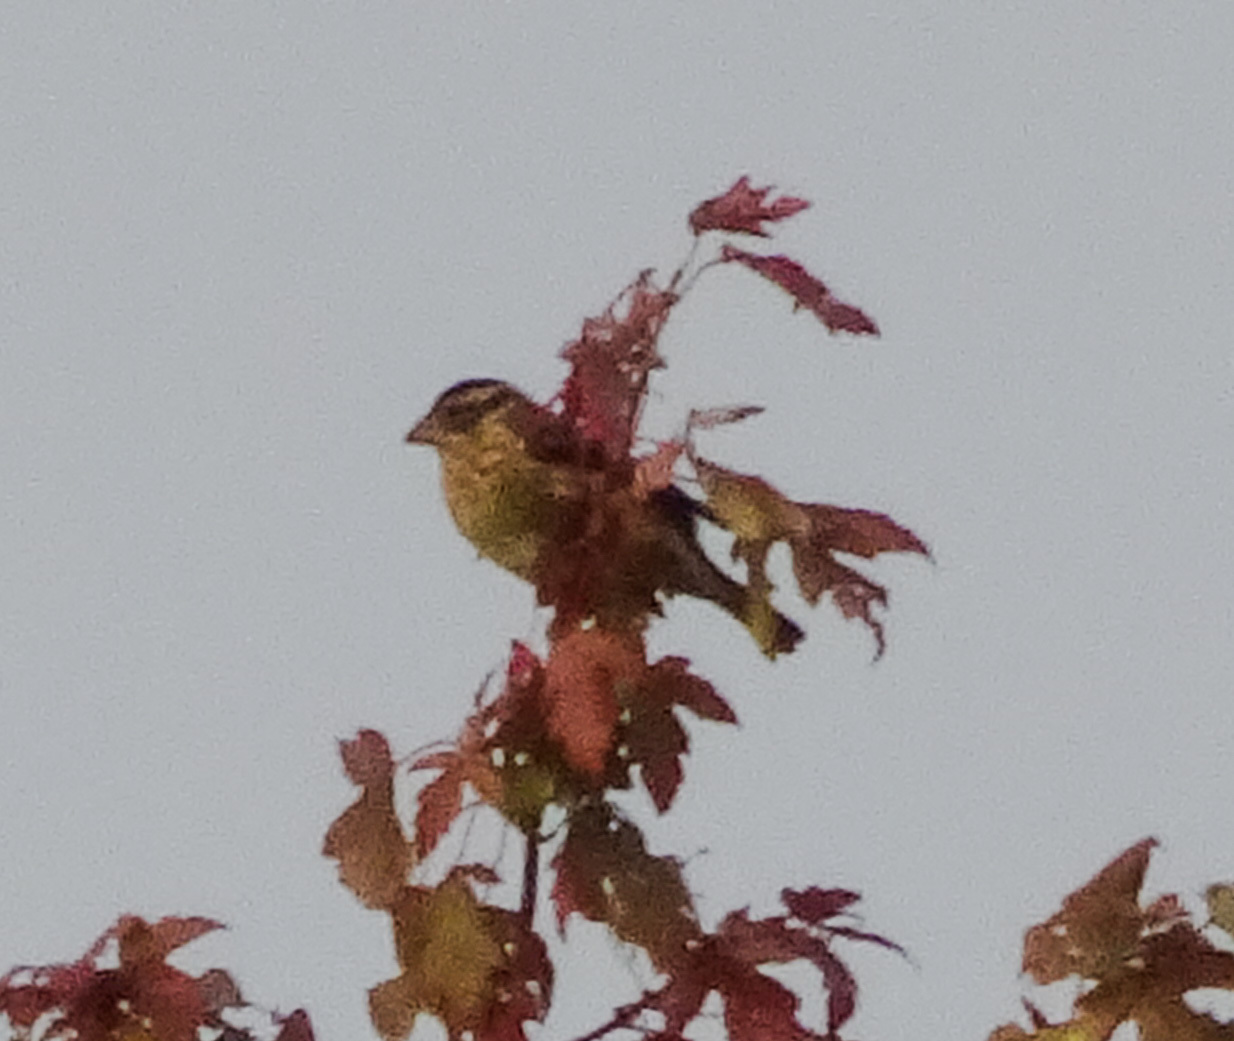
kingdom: Animalia
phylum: Chordata
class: Aves
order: Passeriformes
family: Cardinalidae
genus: Pheucticus
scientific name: Pheucticus ludovicianus
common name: Rose-breasted grosbeak
